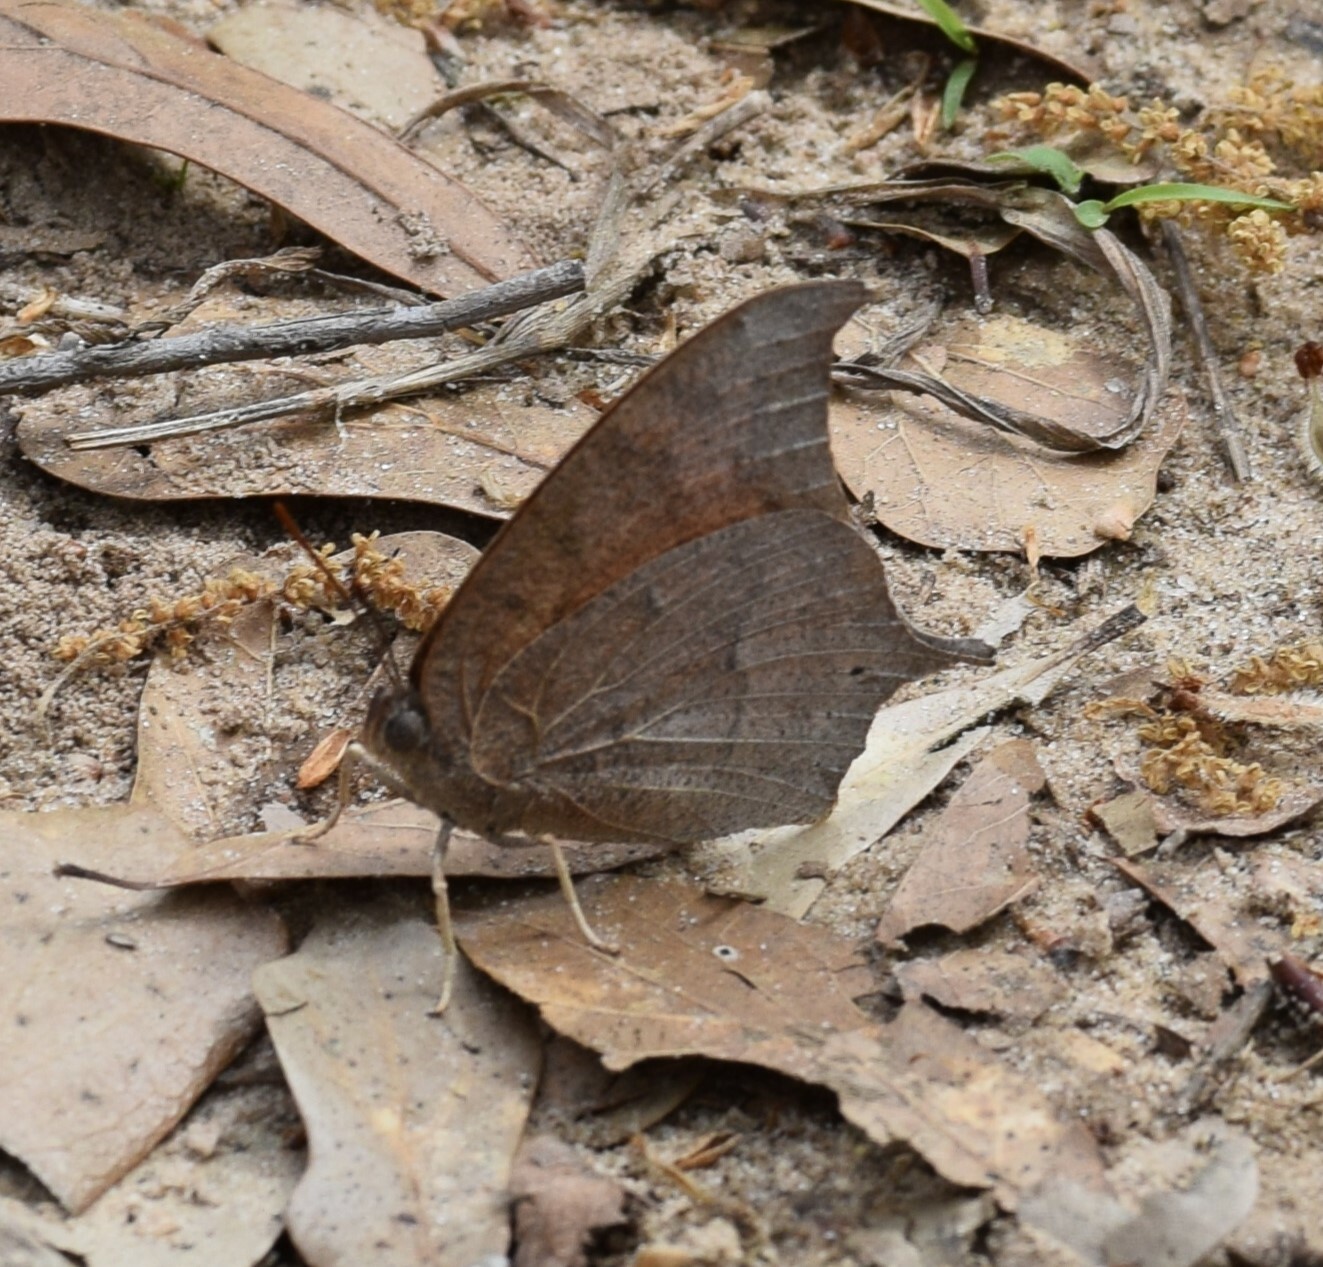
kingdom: Animalia
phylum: Arthropoda
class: Insecta
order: Lepidoptera
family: Nymphalidae
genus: Anaea
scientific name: Anaea andria
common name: Goatweed leafwing
